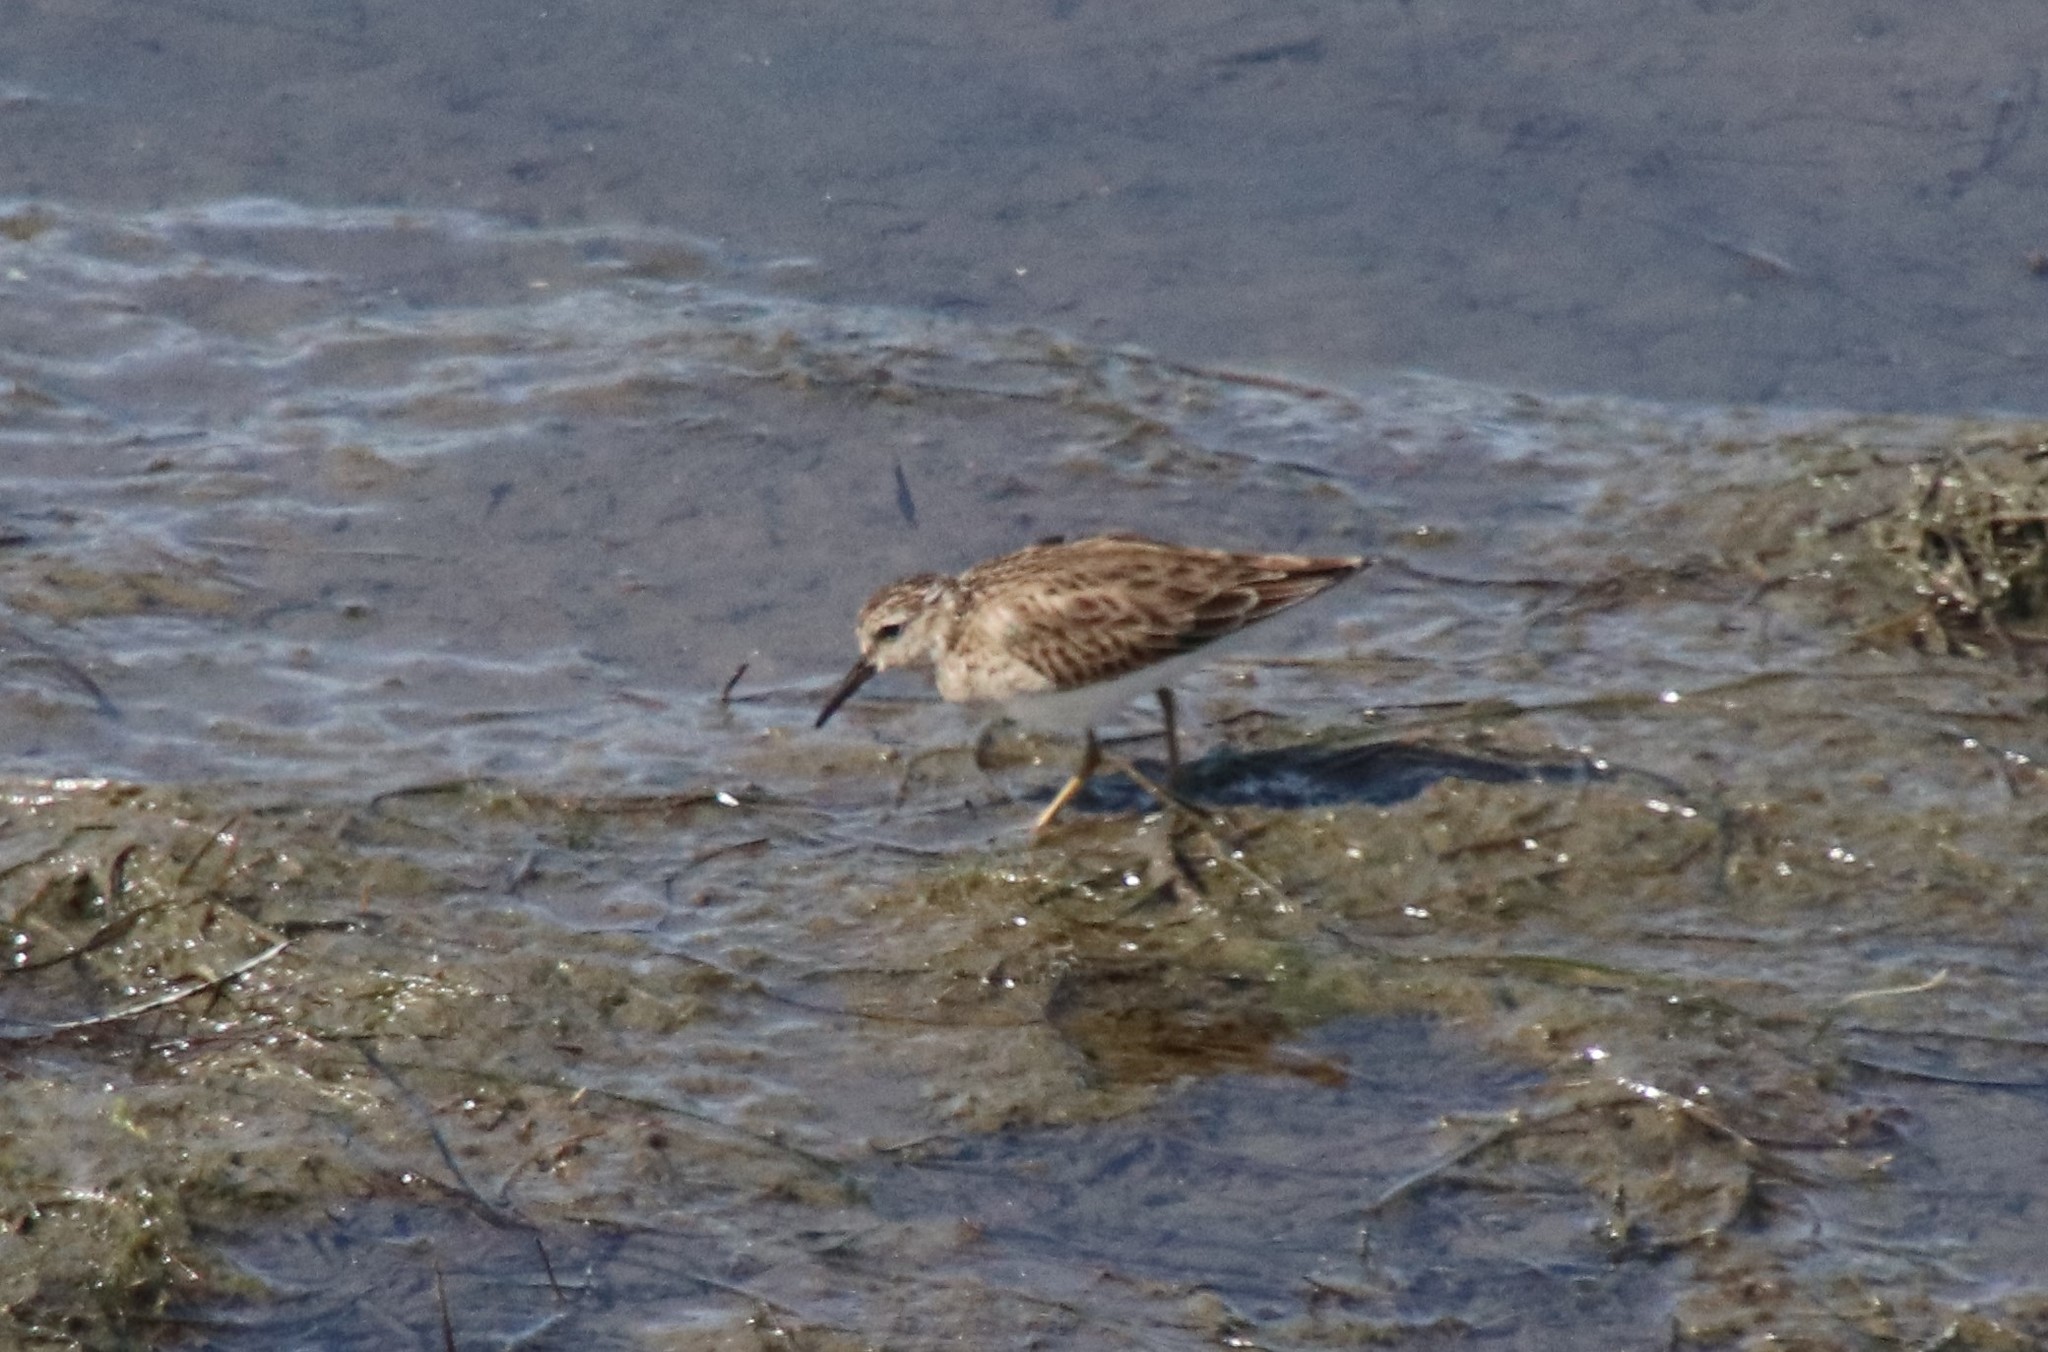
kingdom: Animalia
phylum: Chordata
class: Aves
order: Charadriiformes
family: Scolopacidae
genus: Calidris
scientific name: Calidris minutilla
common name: Least sandpiper
